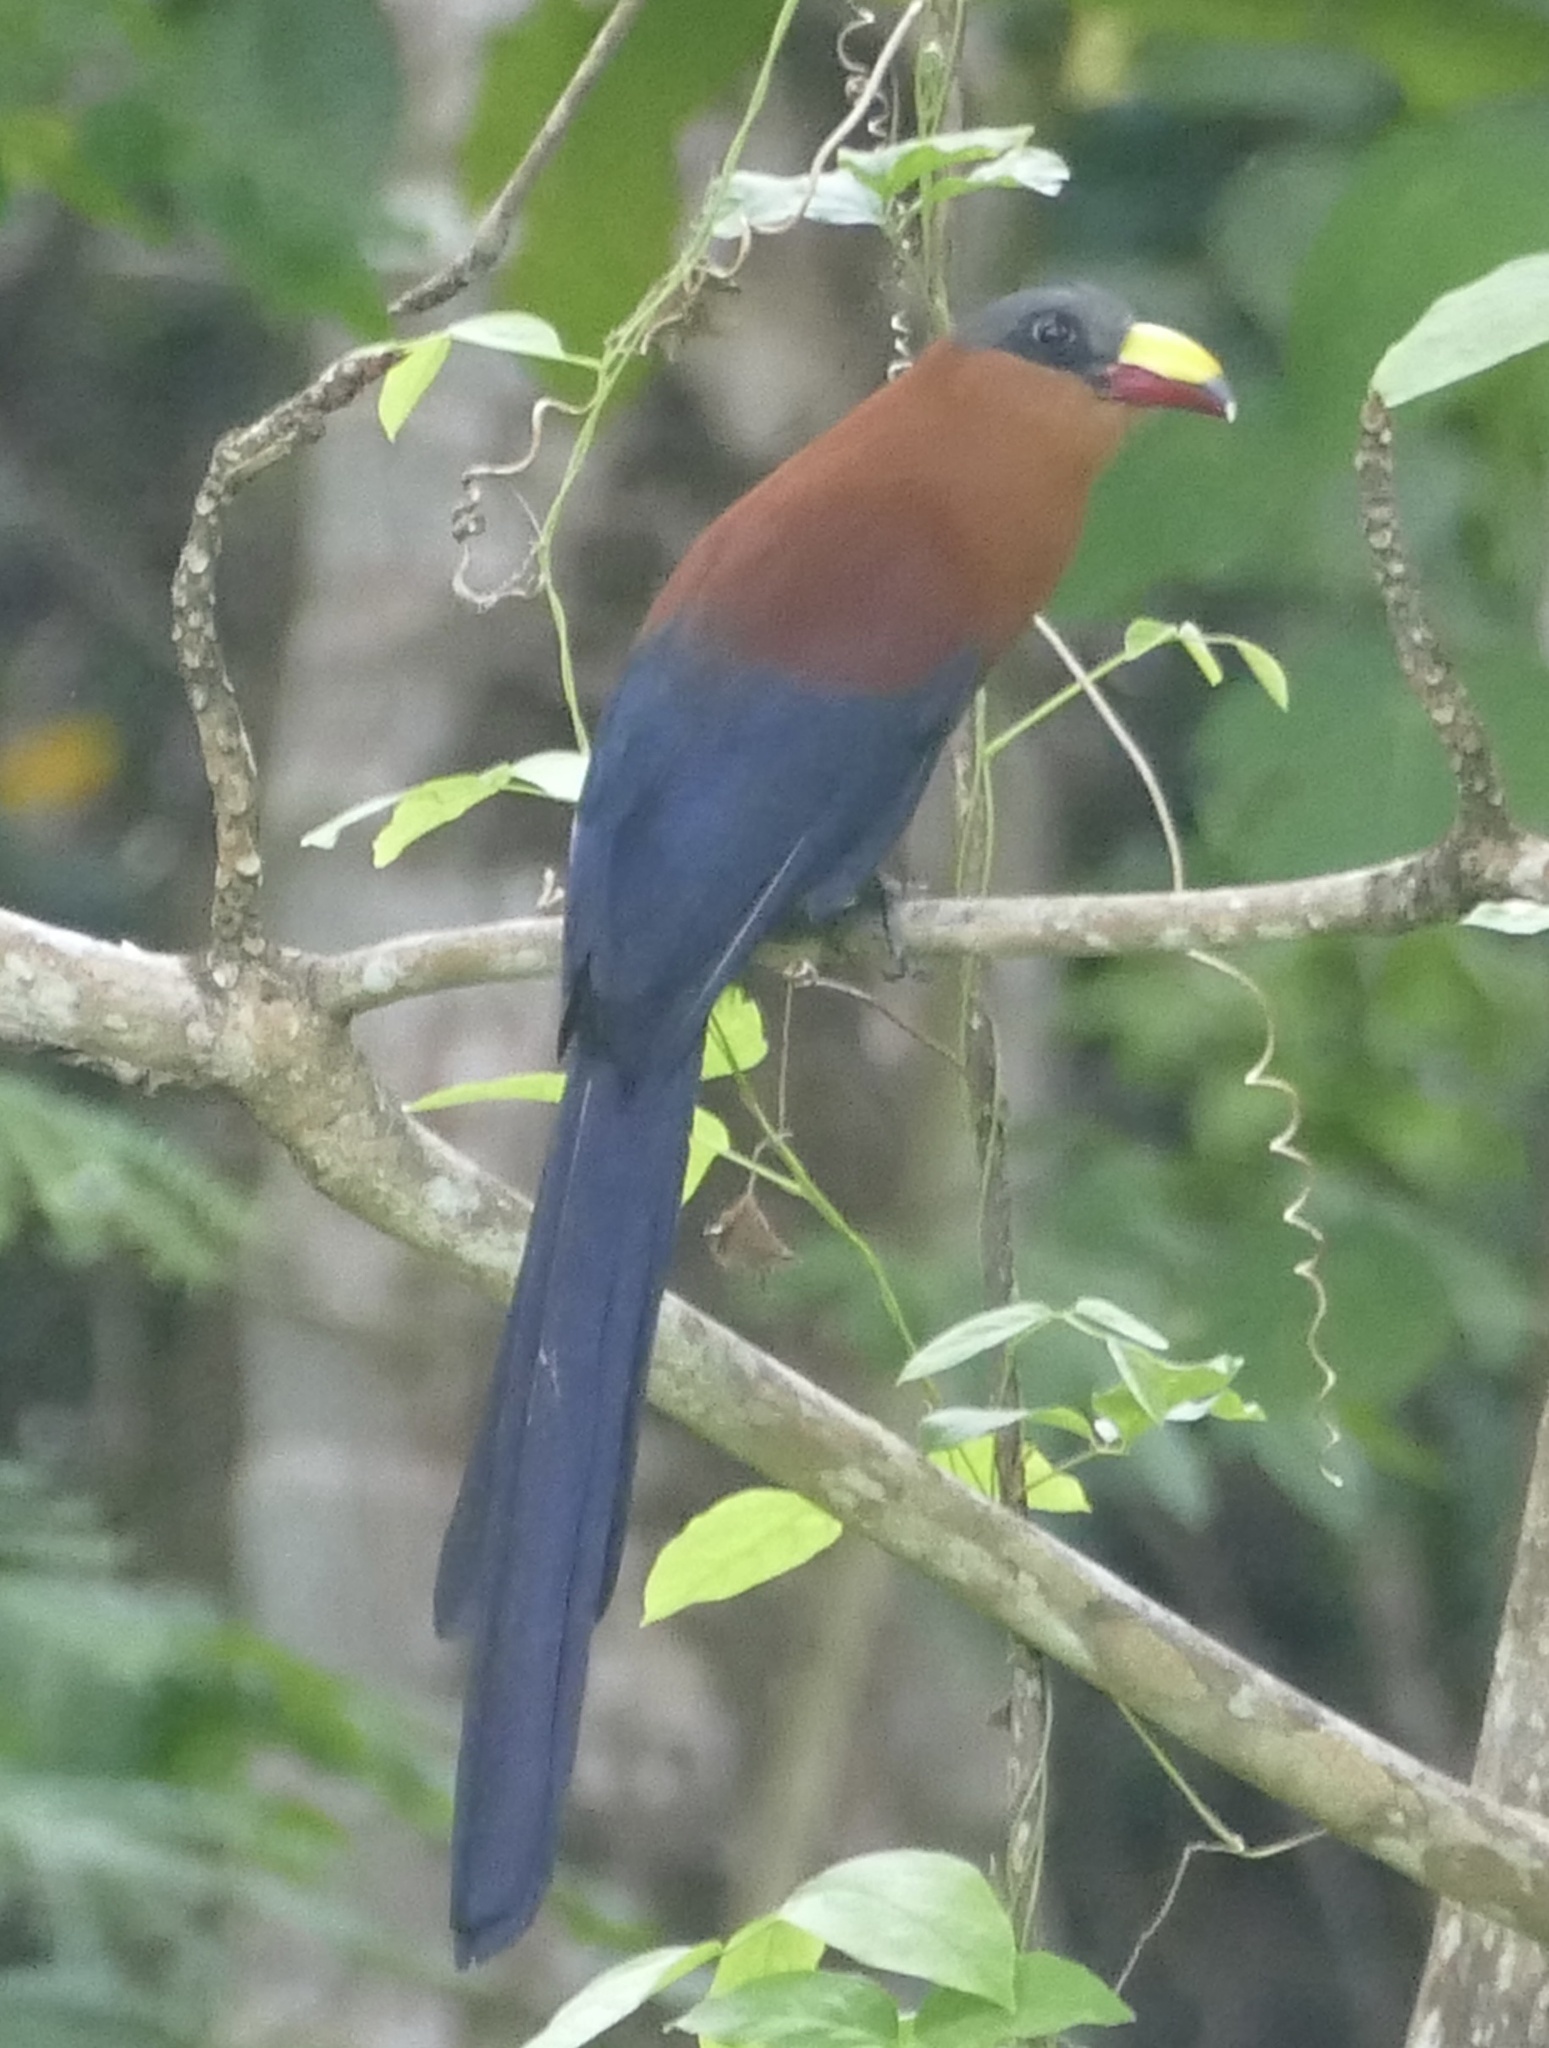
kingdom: Animalia
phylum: Chordata
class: Aves
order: Cuculiformes
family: Cuculidae
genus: Zanclostomus
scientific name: Zanclostomus calyorhynchus
